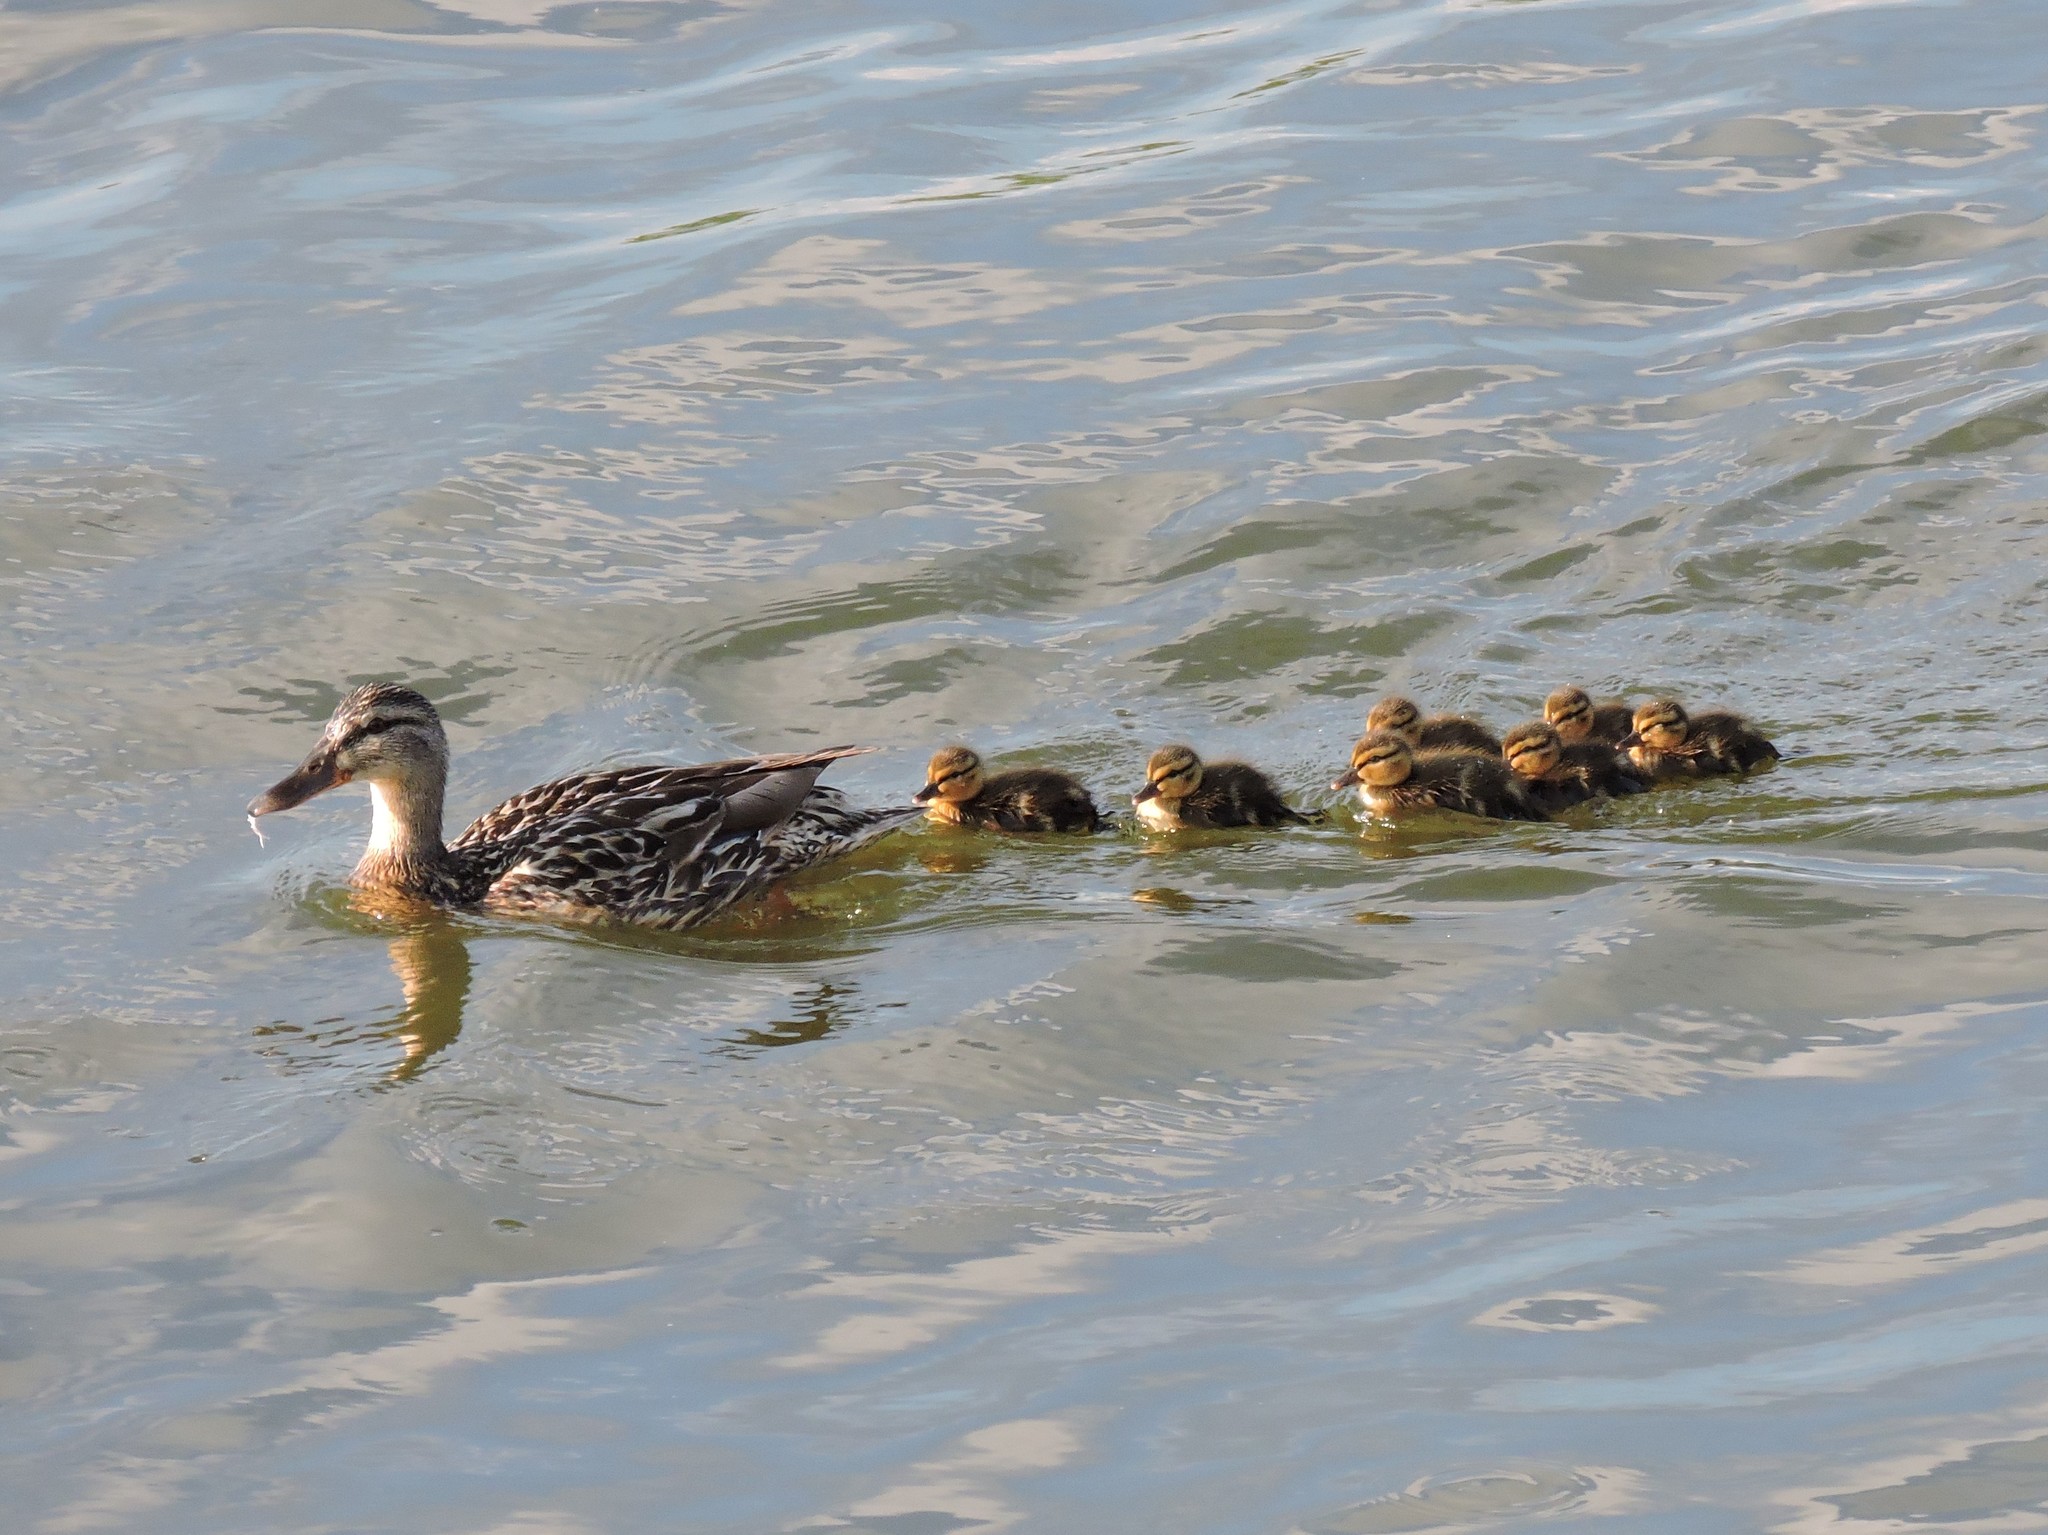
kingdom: Animalia
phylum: Chordata
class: Aves
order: Anseriformes
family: Anatidae
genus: Anas
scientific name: Anas platyrhynchos
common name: Mallard
